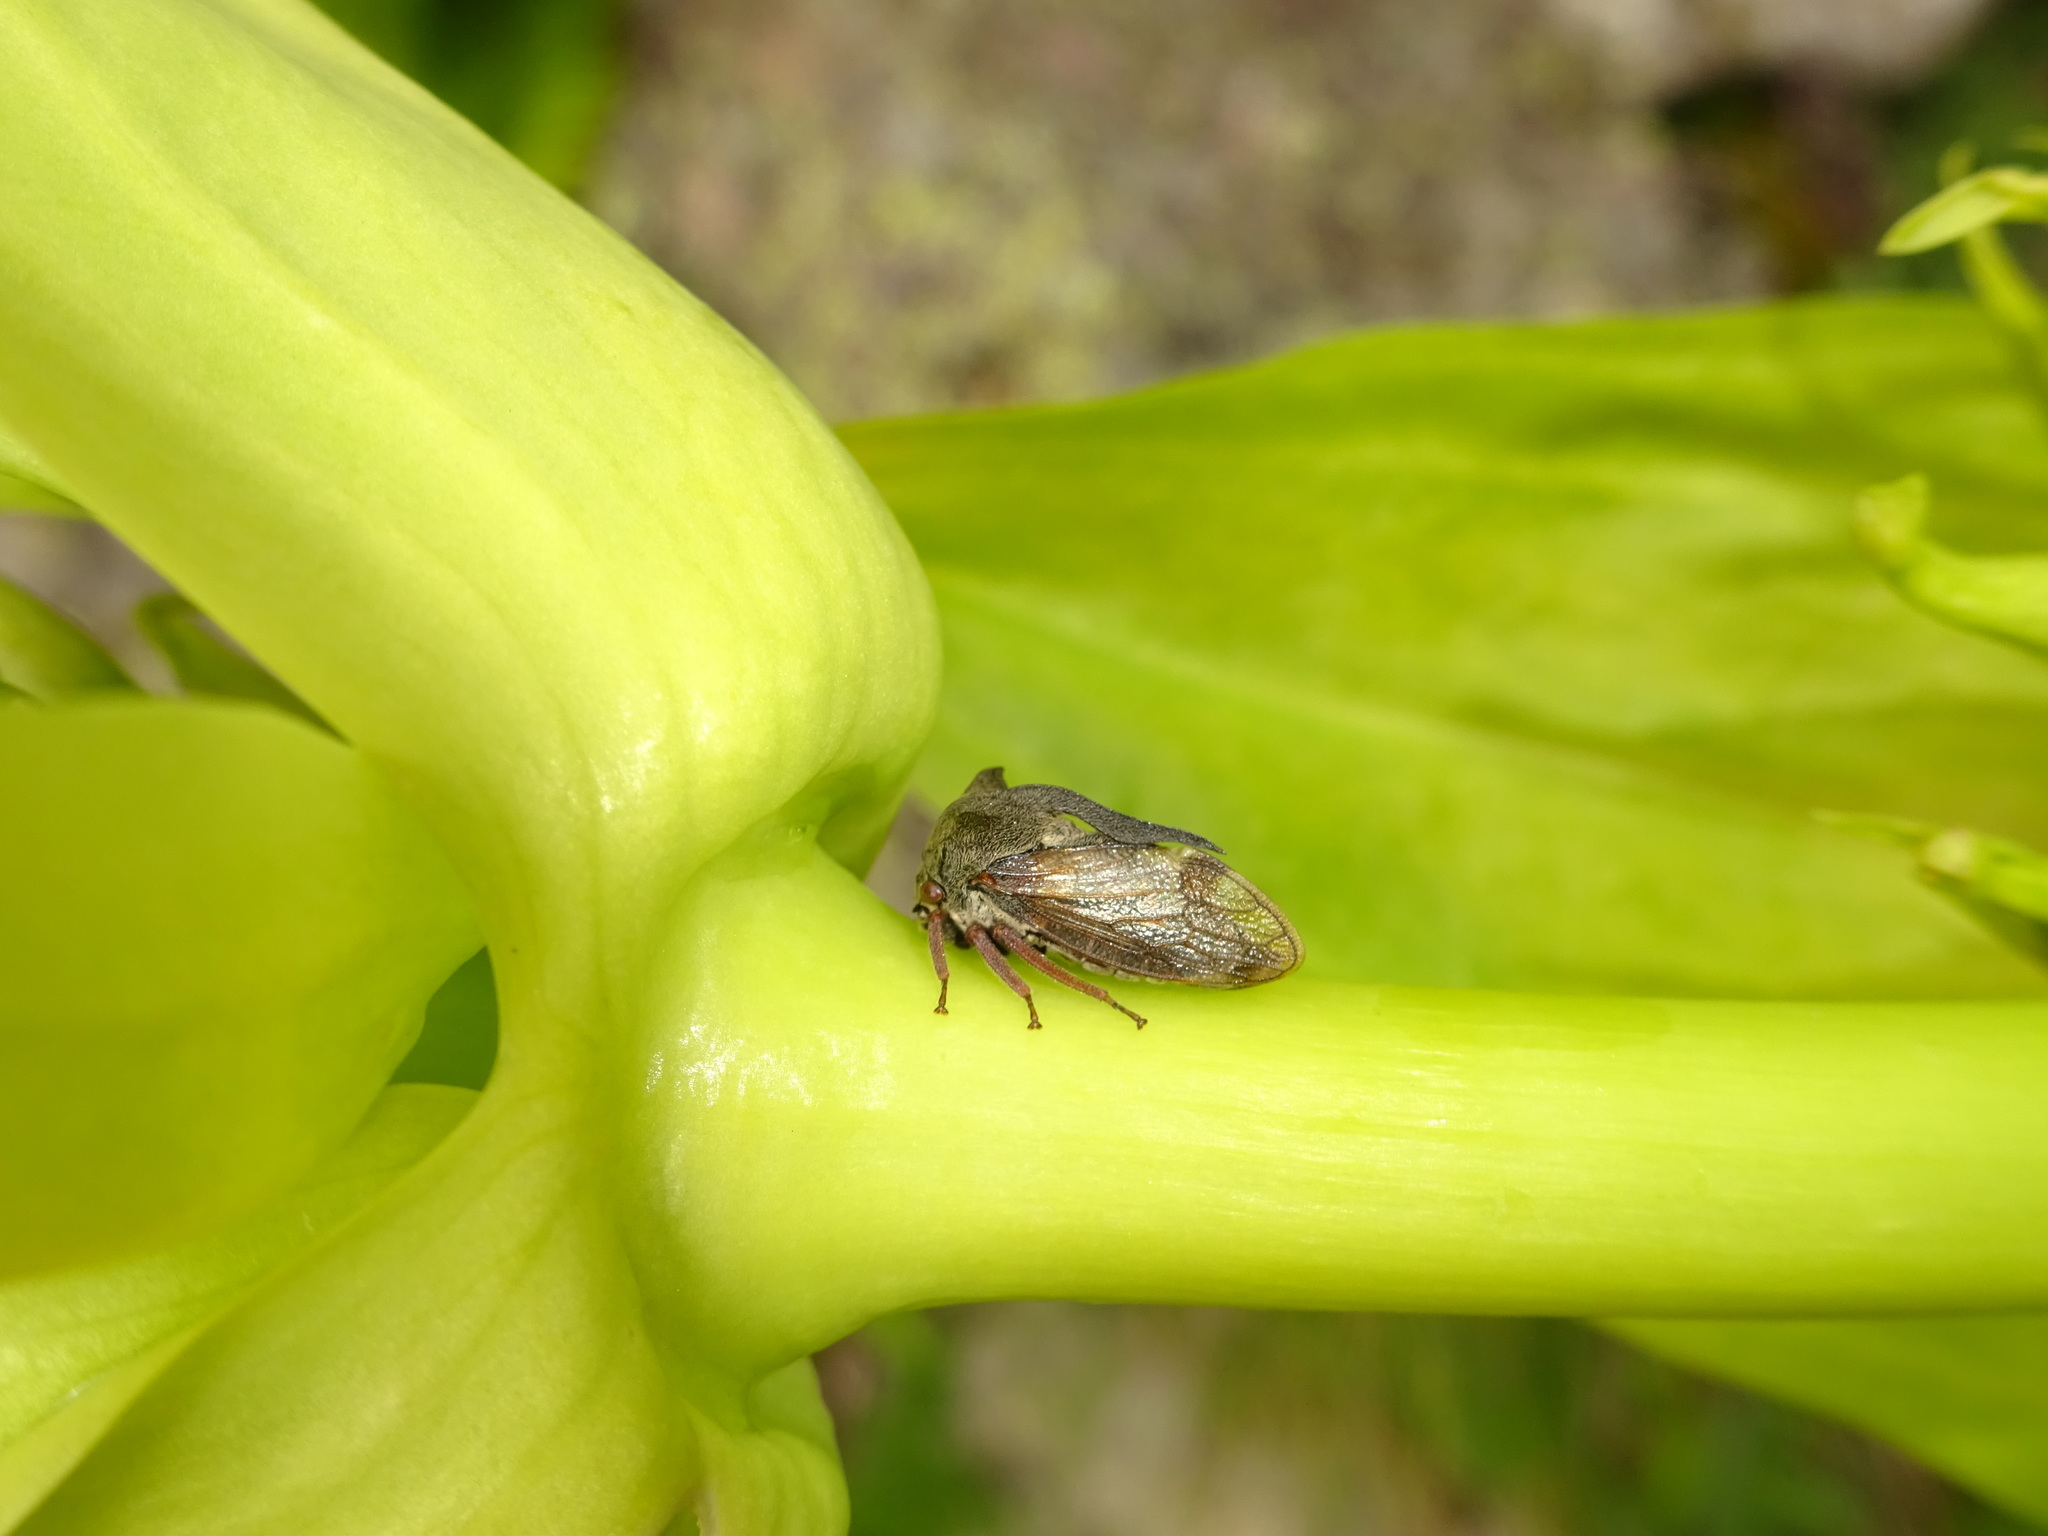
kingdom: Animalia
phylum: Arthropoda
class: Insecta
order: Hemiptera
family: Membracidae
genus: Centrotus
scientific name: Centrotus cornuta
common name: Treehopper
